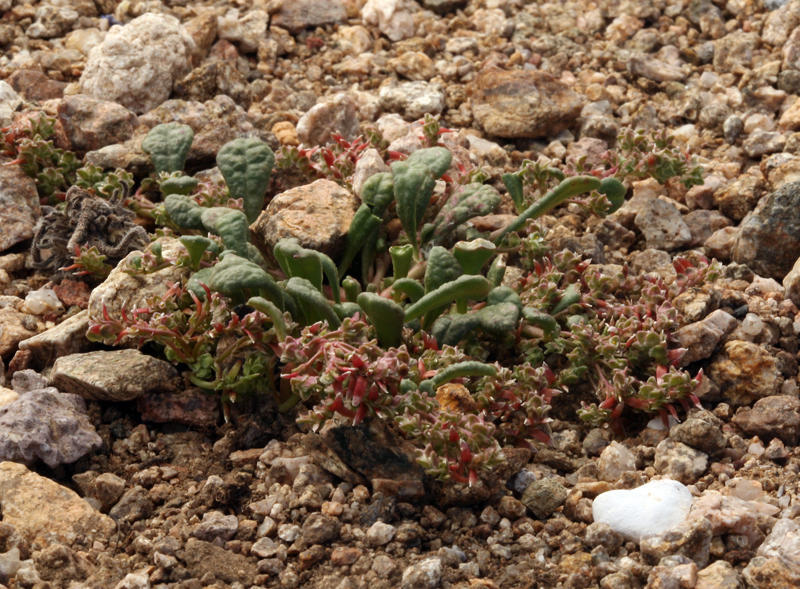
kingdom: Plantae
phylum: Tracheophyta
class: Magnoliopsida
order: Caryophyllales
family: Montiaceae
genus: Calyptridium
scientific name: Calyptridium monandrum
